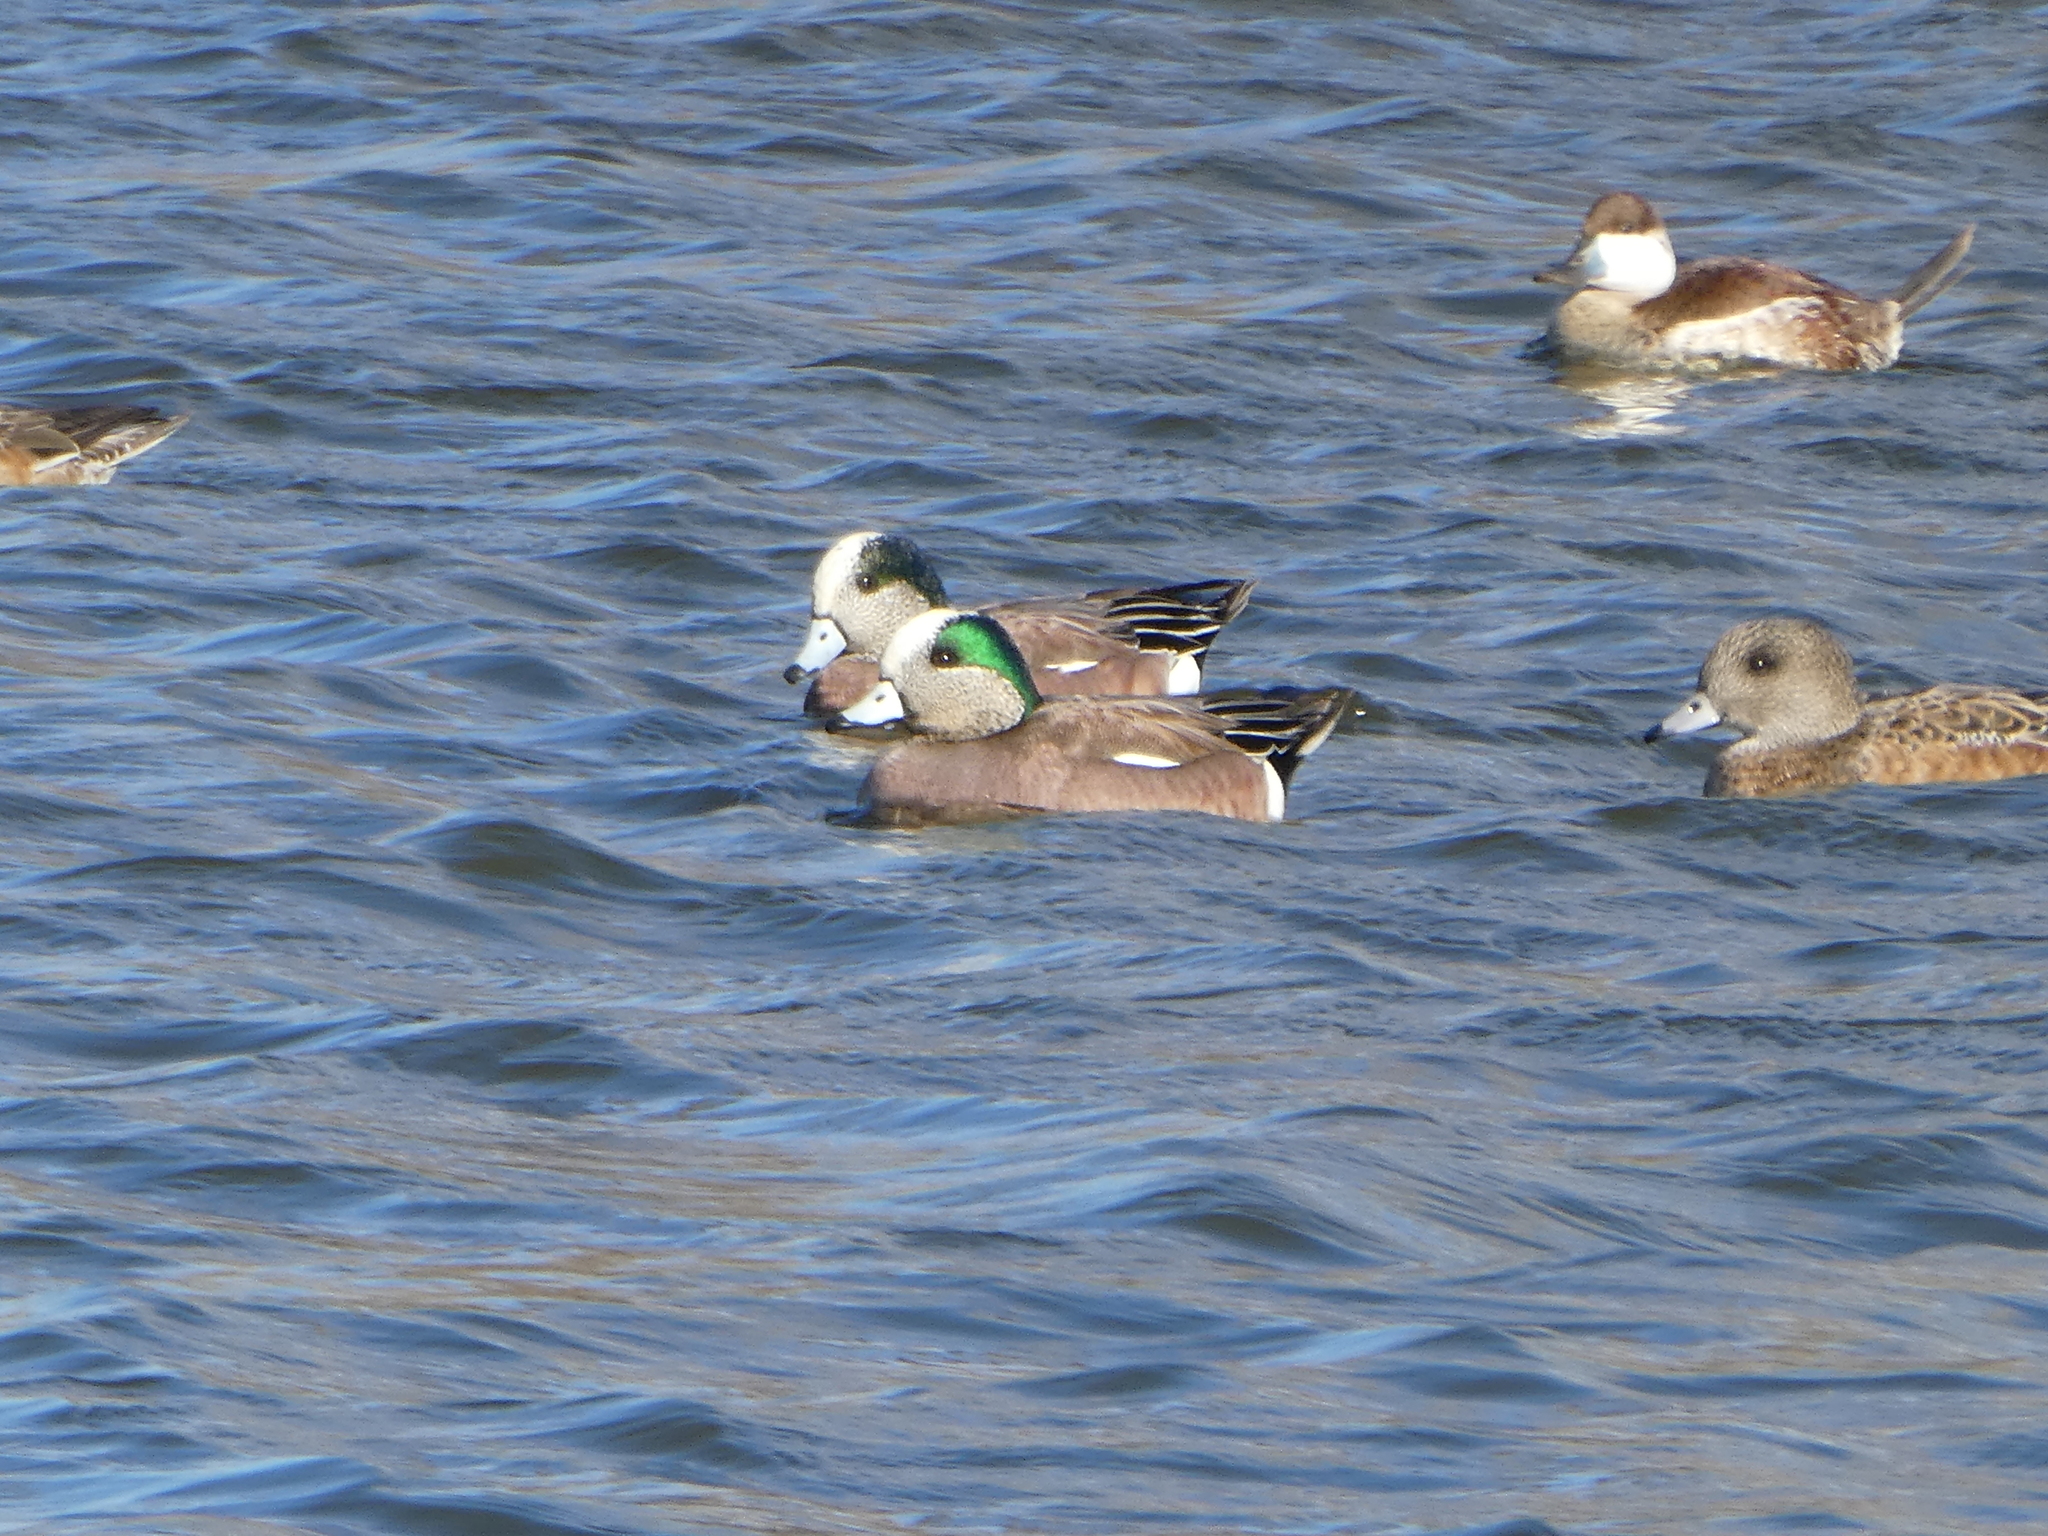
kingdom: Animalia
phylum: Chordata
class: Aves
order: Anseriformes
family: Anatidae
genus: Mareca
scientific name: Mareca americana
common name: American wigeon
